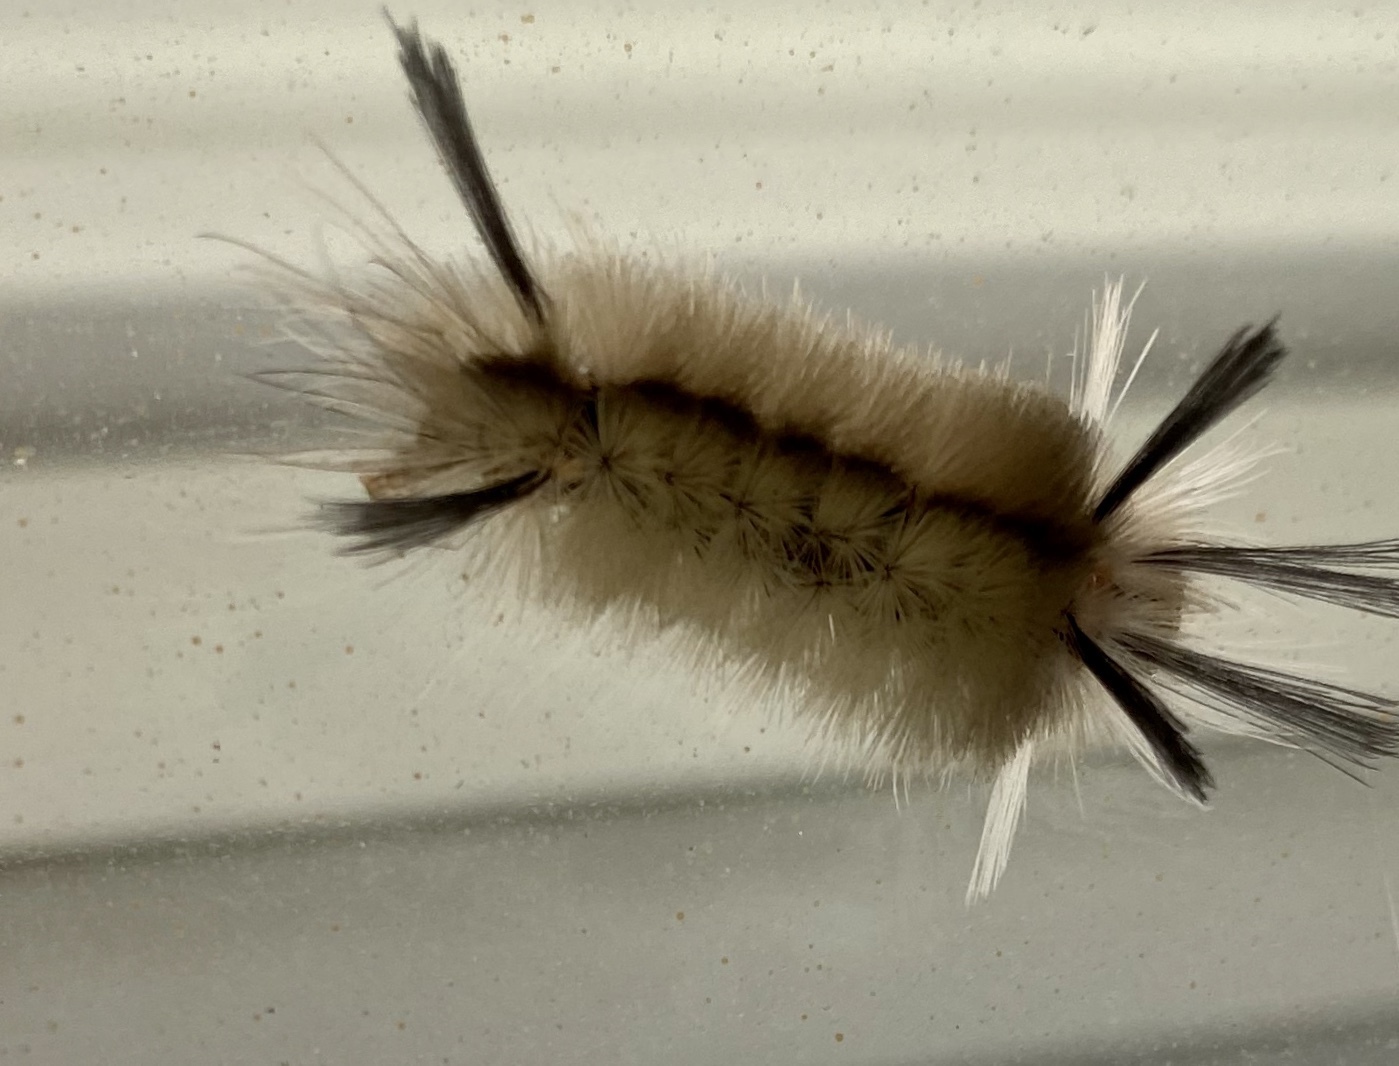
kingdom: Animalia
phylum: Arthropoda
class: Insecta
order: Lepidoptera
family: Erebidae
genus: Halysidota
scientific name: Halysidota tessellaris
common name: Banded tussock moth
